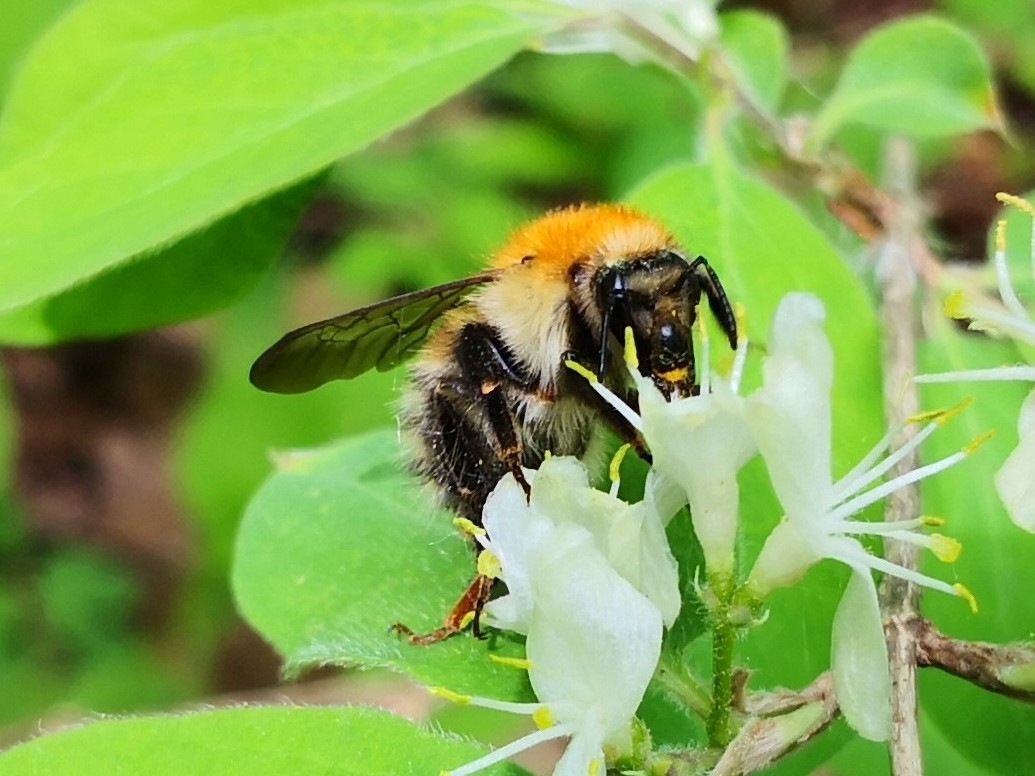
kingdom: Animalia
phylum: Arthropoda
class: Insecta
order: Hymenoptera
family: Apidae
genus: Bombus
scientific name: Bombus schrencki
